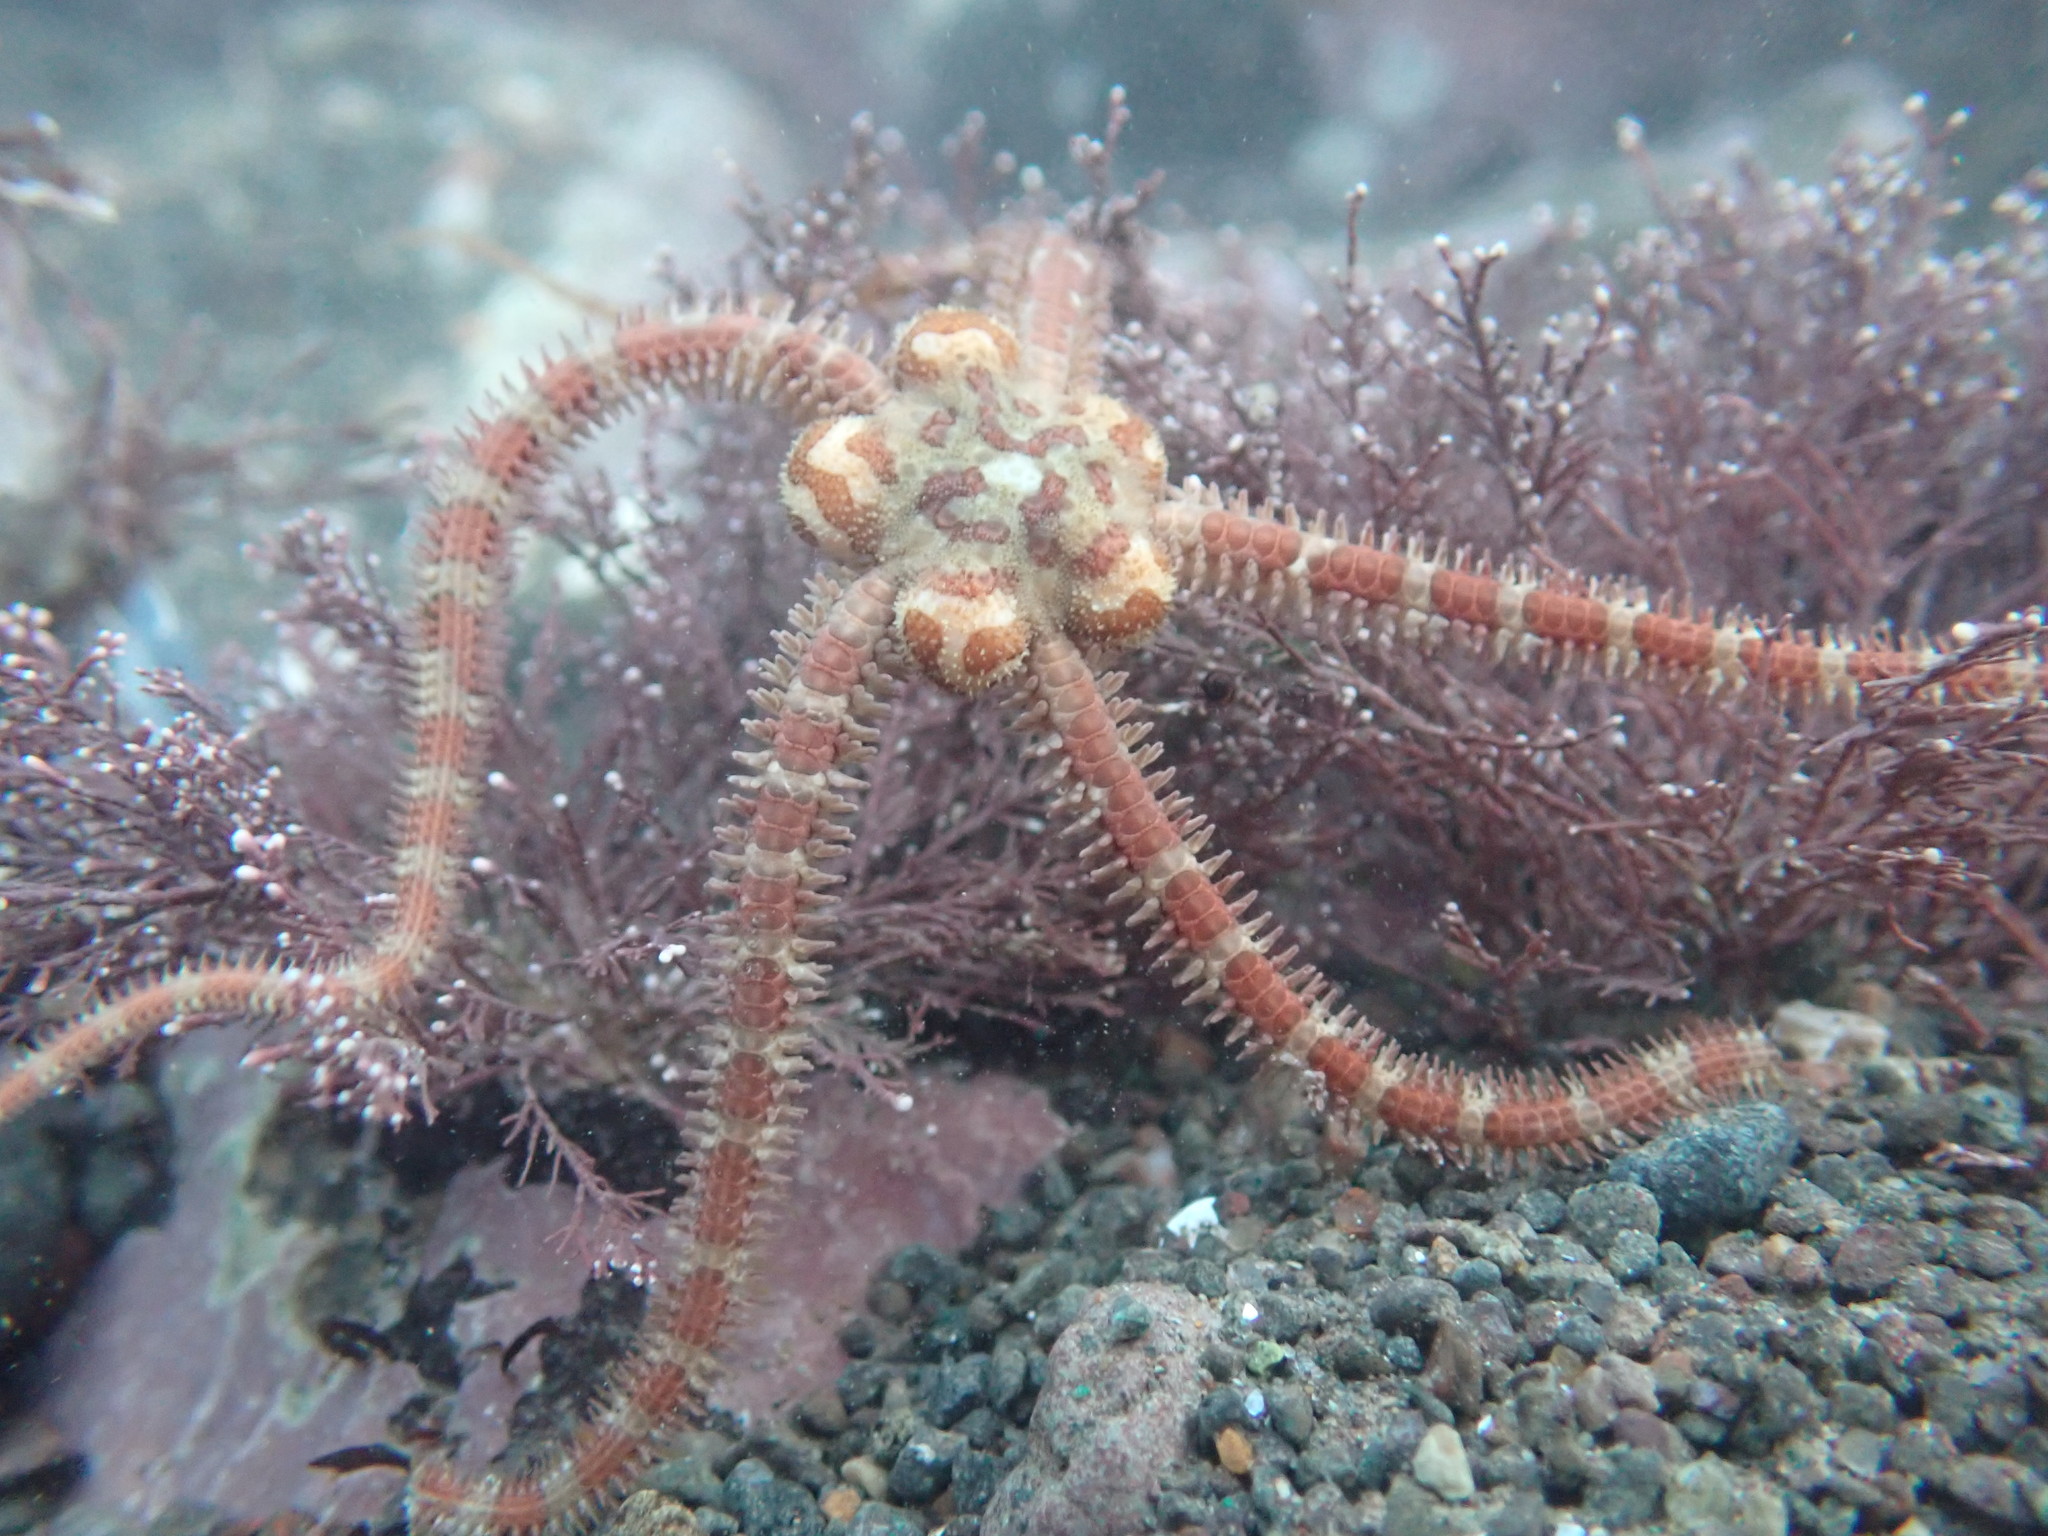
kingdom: Animalia
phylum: Echinodermata
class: Ophiuroidea
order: Amphilepidida
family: Ophiopholidae
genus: Ophiopholis
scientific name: Ophiopholis aculeata
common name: Crevice brittlestar
